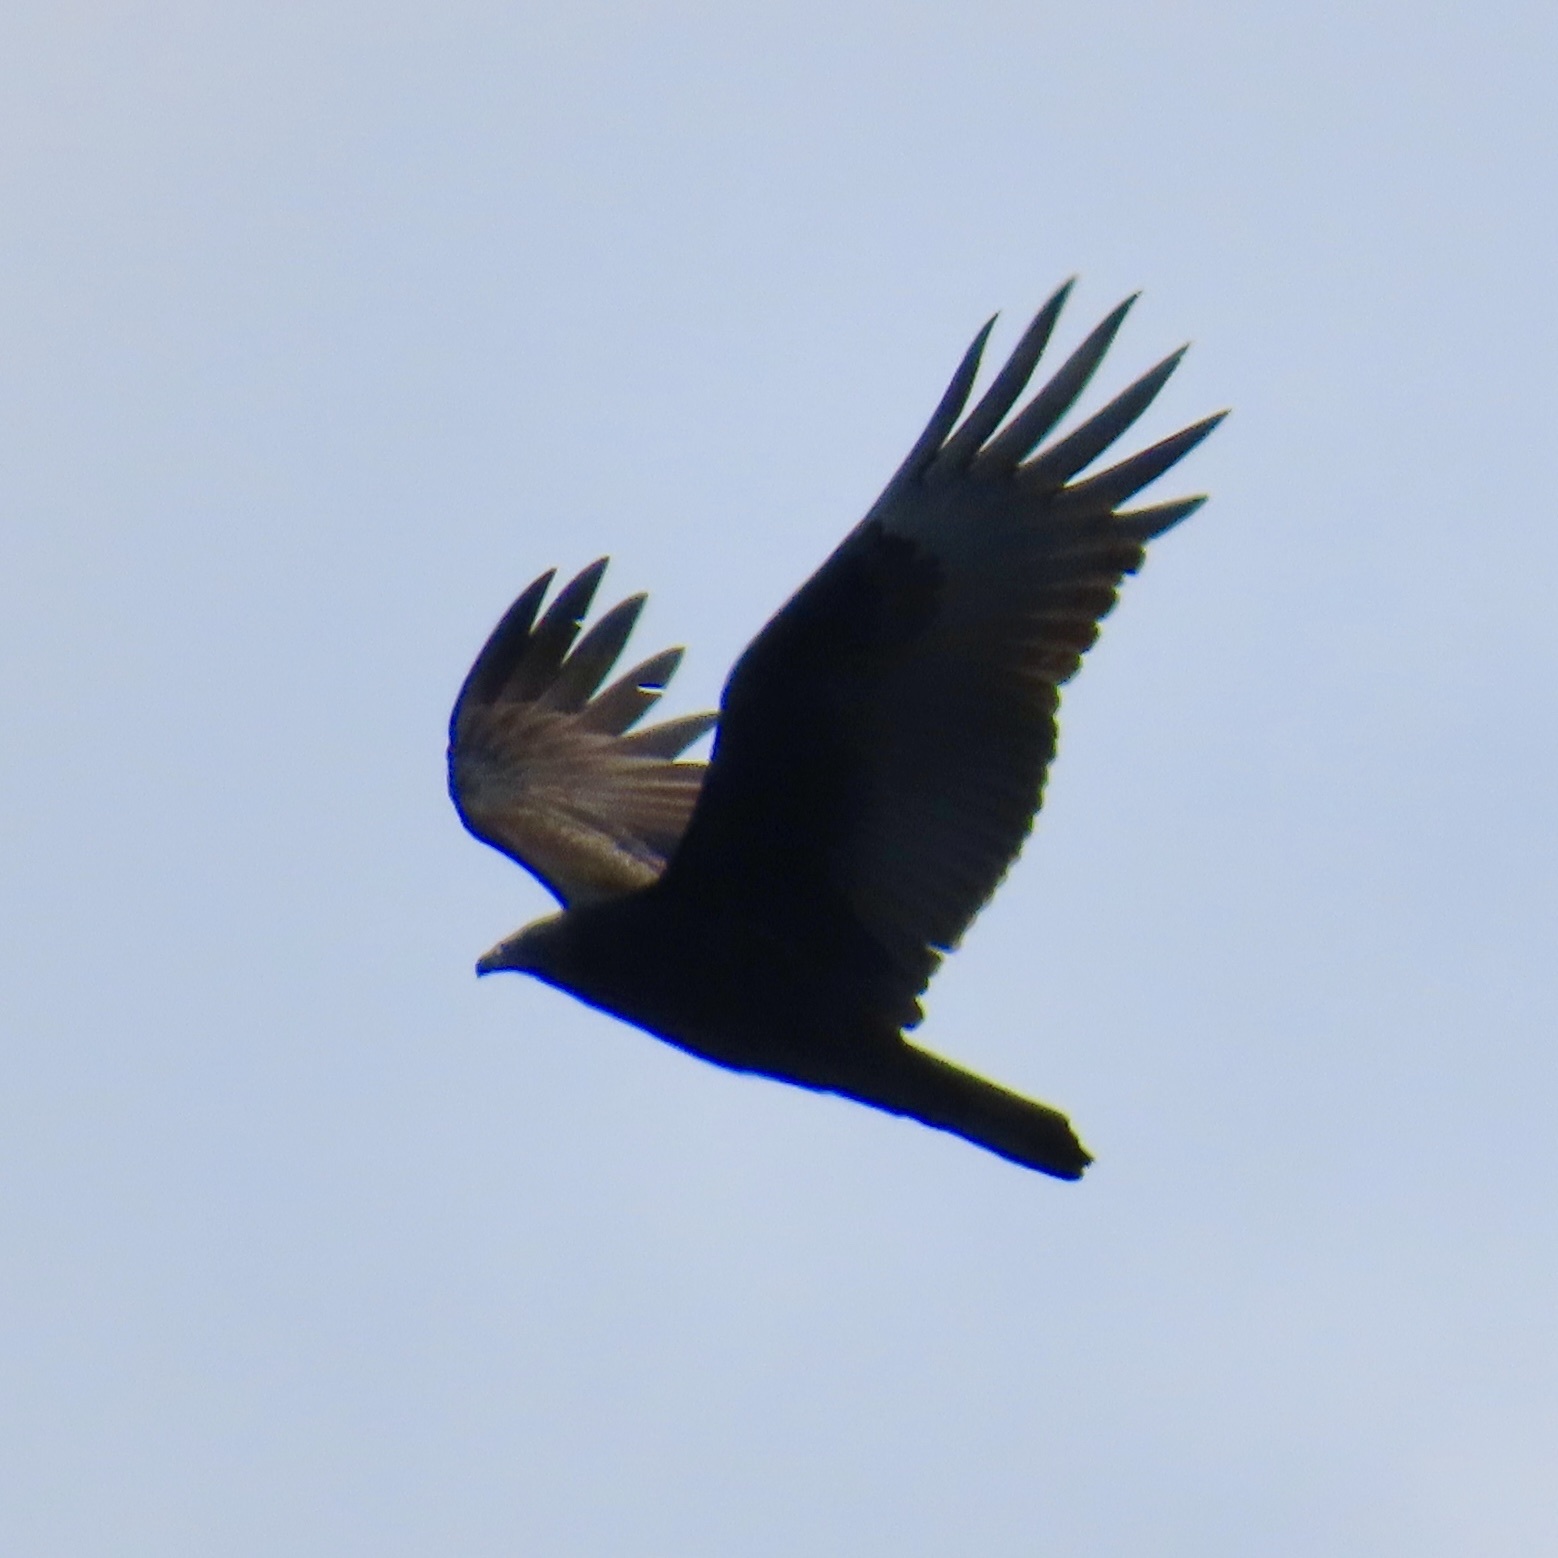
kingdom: Animalia
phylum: Chordata
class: Aves
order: Accipitriformes
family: Cathartidae
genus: Cathartes
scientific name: Cathartes aura
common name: Turkey vulture
